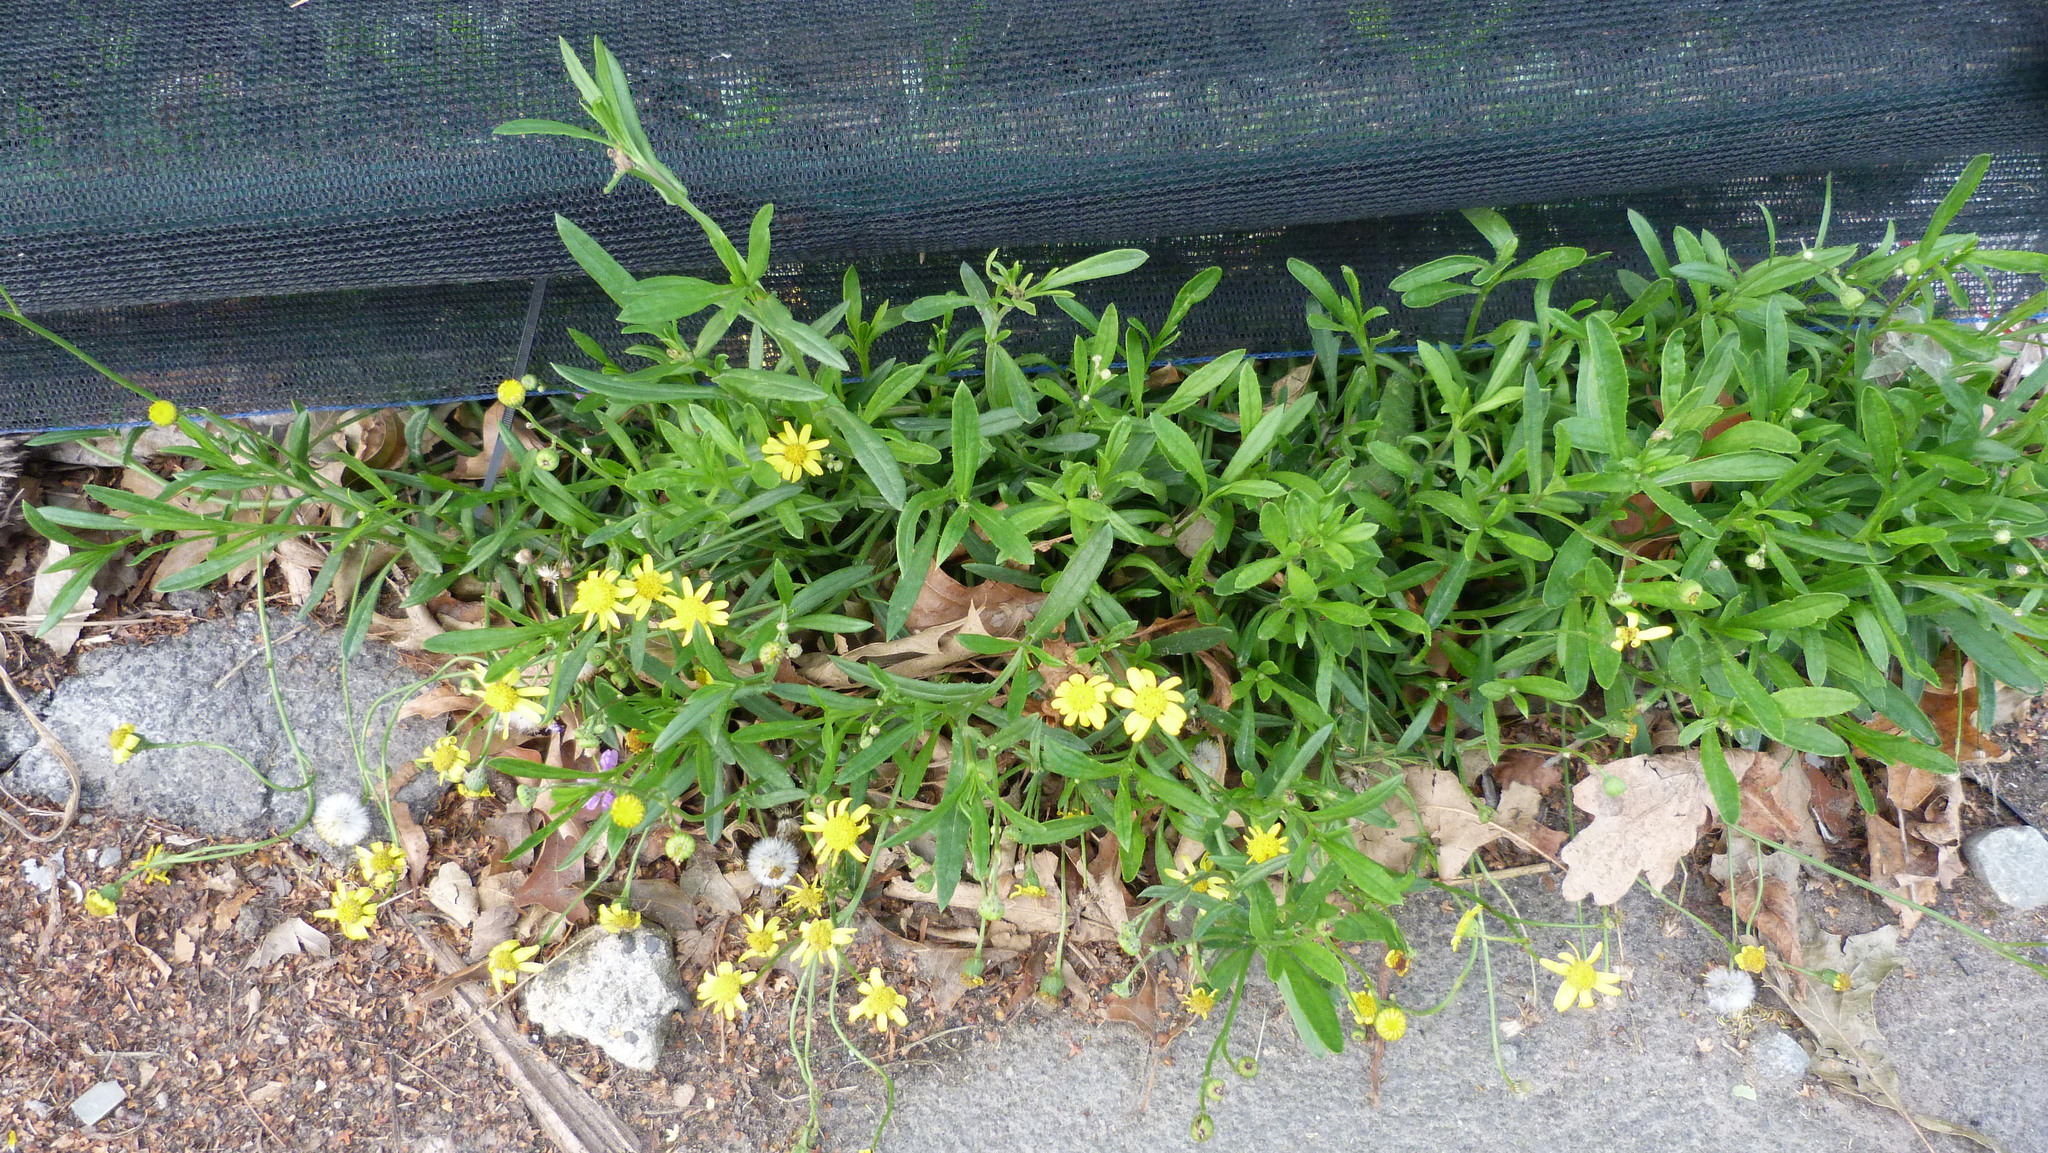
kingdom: Plantae
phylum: Tracheophyta
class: Magnoliopsida
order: Asterales
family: Asteraceae
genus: Senecio
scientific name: Senecio skirrhodon
